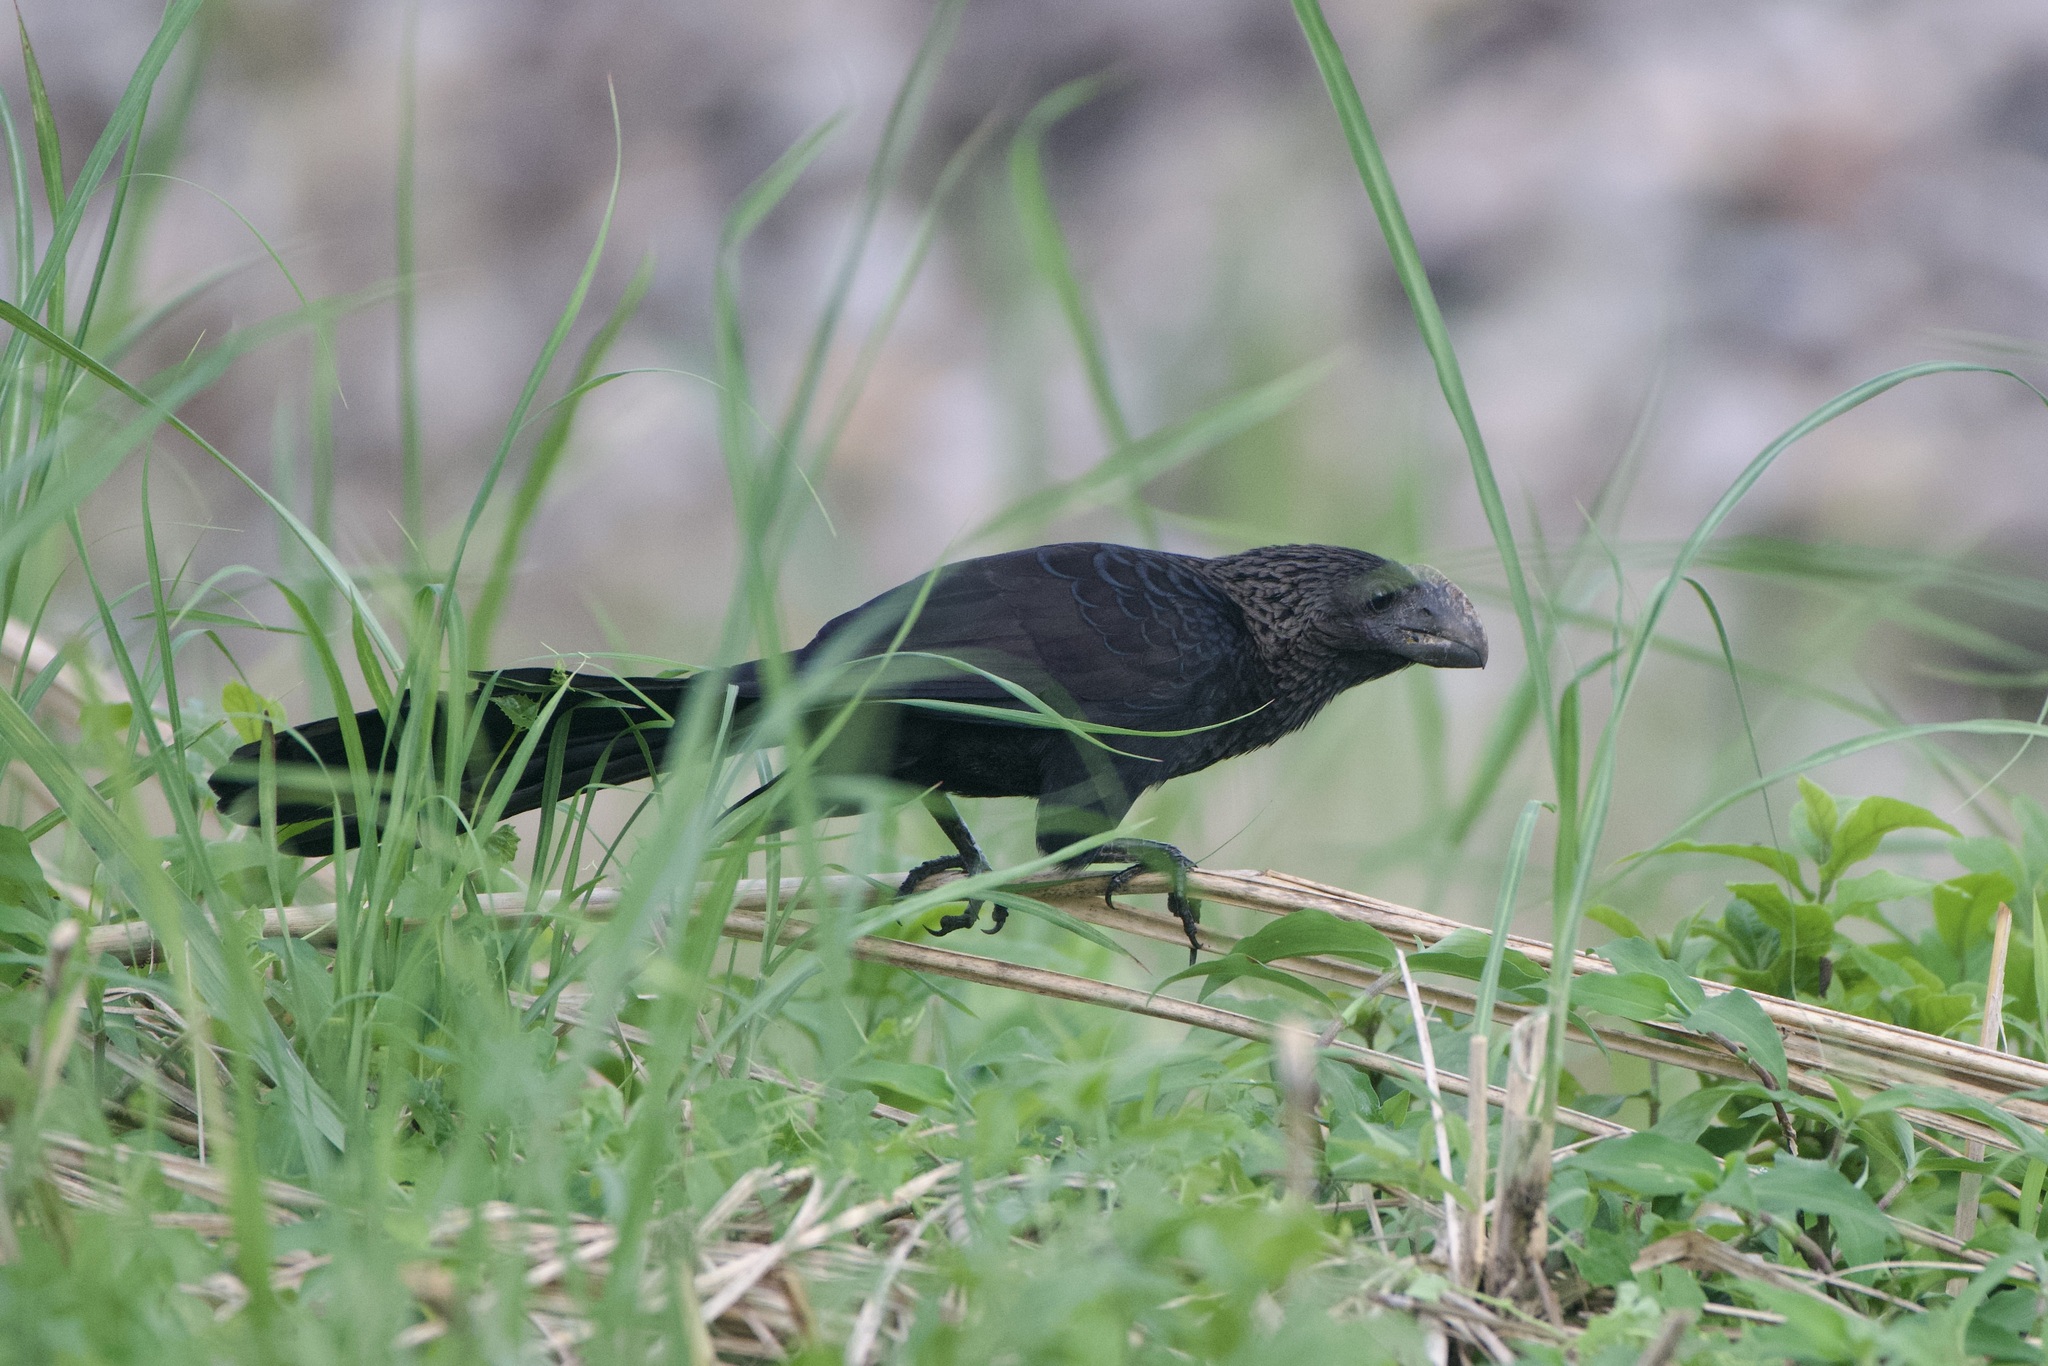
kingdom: Animalia
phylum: Chordata
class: Aves
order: Cuculiformes
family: Cuculidae
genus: Crotophaga
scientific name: Crotophaga ani
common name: Smooth-billed ani
